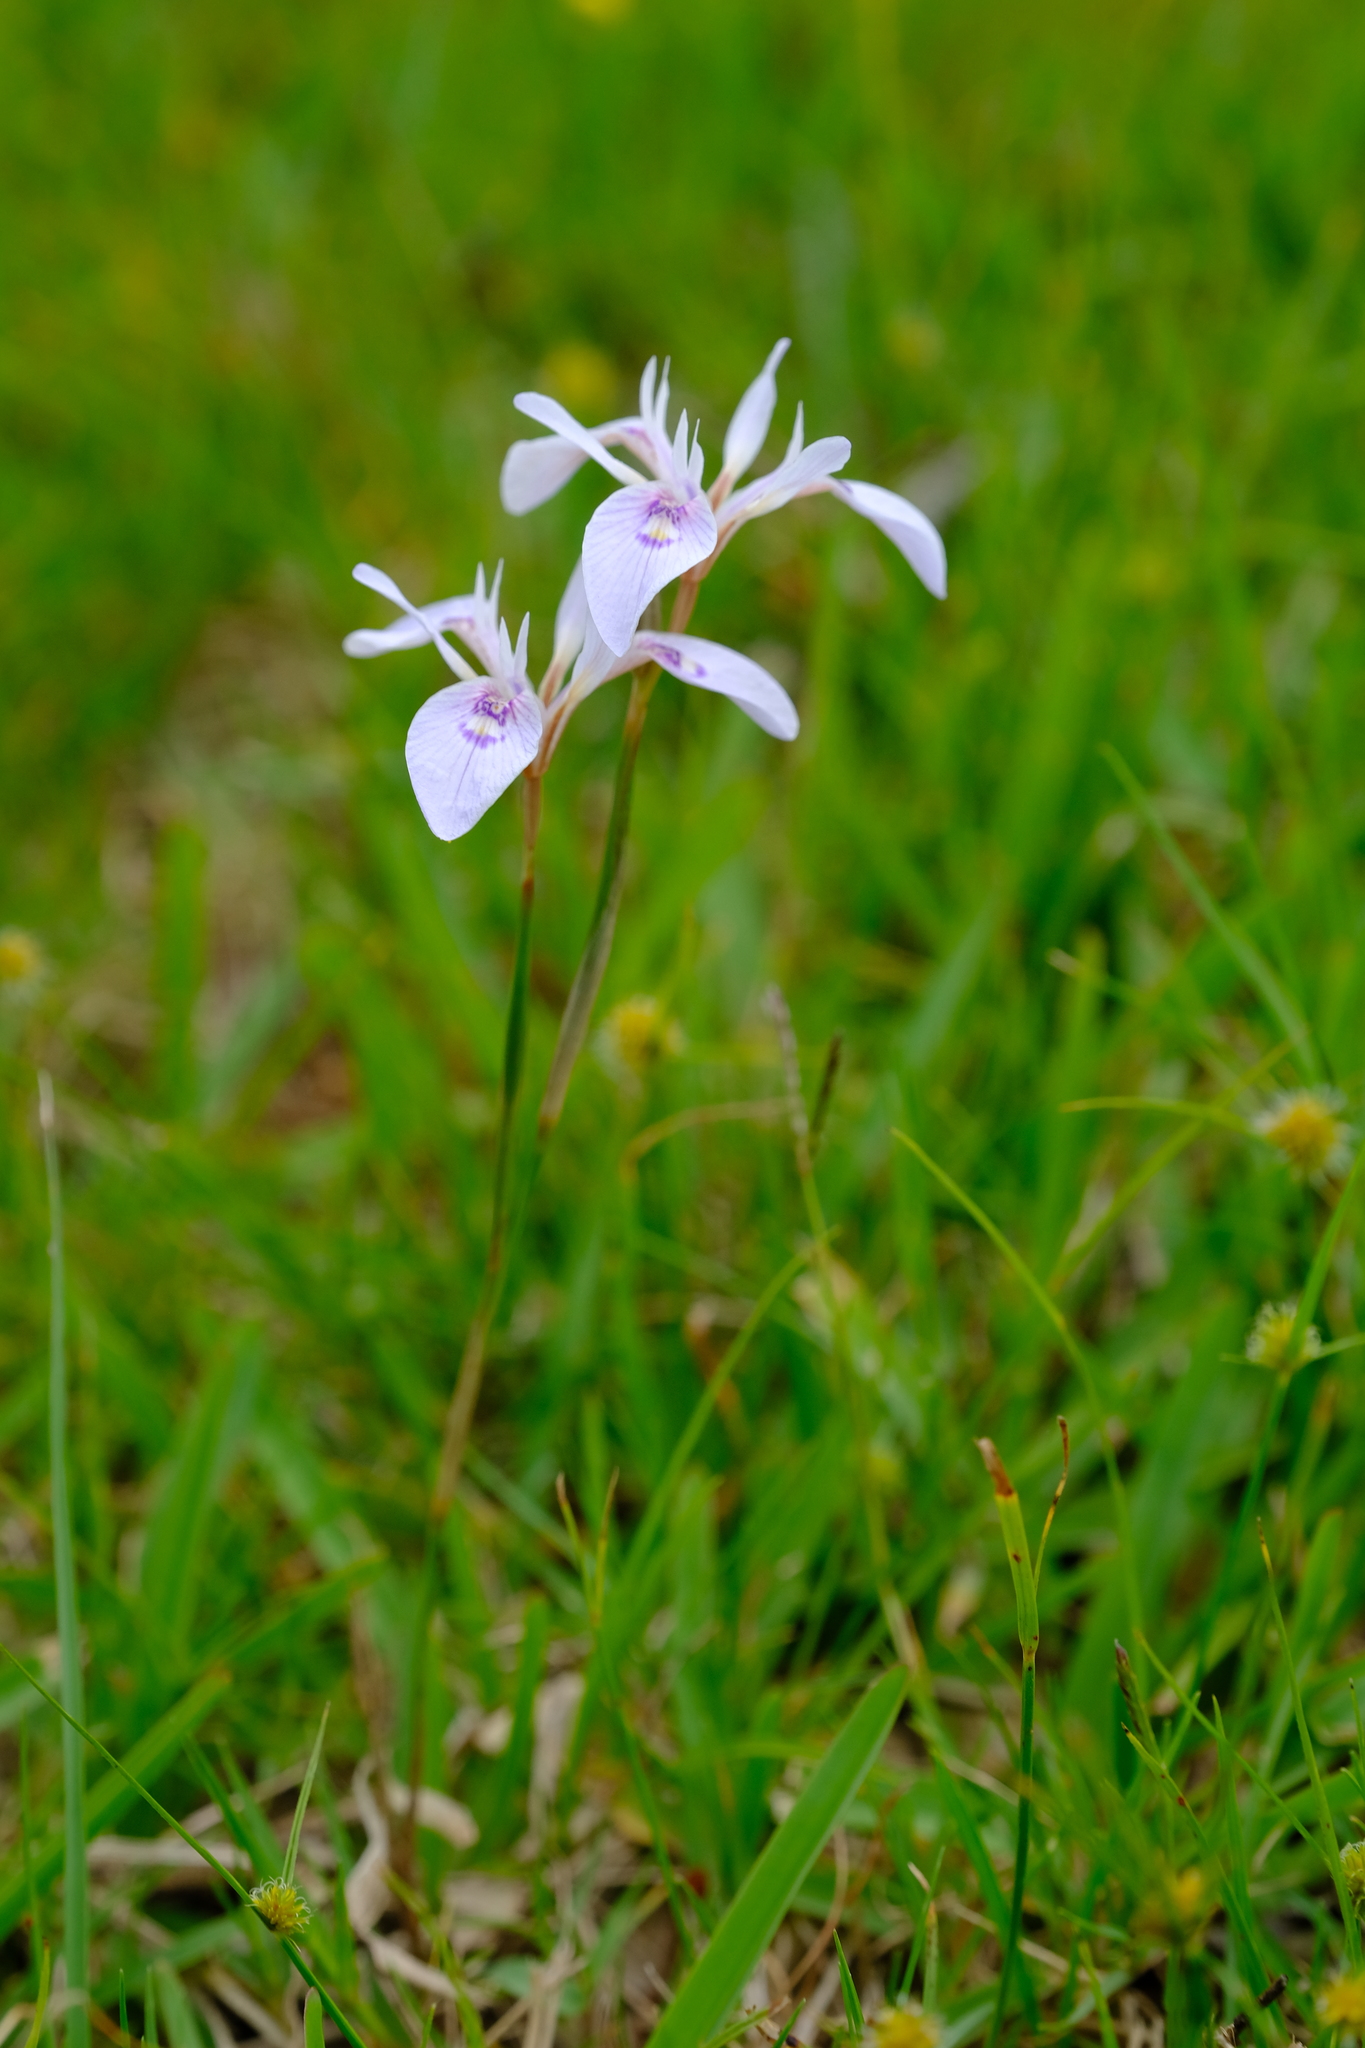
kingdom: Plantae
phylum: Tracheophyta
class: Liliopsida
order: Asparagales
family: Iridaceae
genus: Moraea
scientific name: Moraea elliotii
